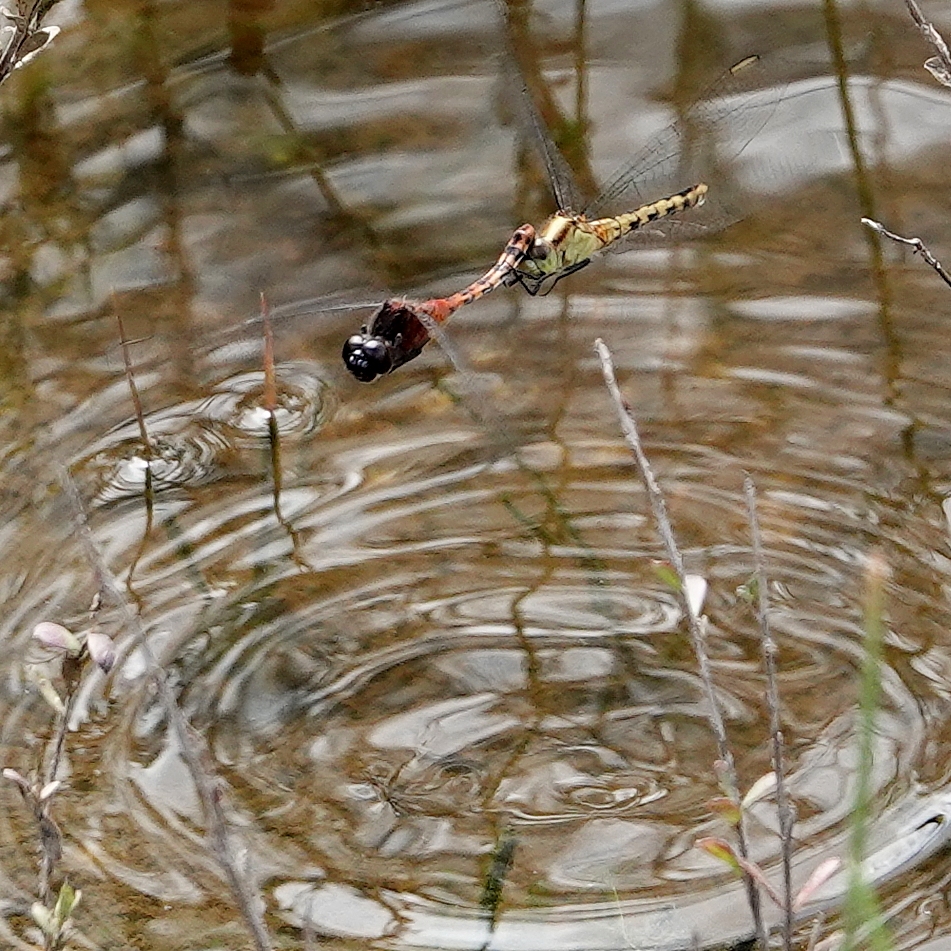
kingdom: Animalia
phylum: Arthropoda
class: Insecta
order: Odonata
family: Libellulidae
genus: Diplacodes
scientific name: Diplacodes melanopsis
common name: Black-faced percher
